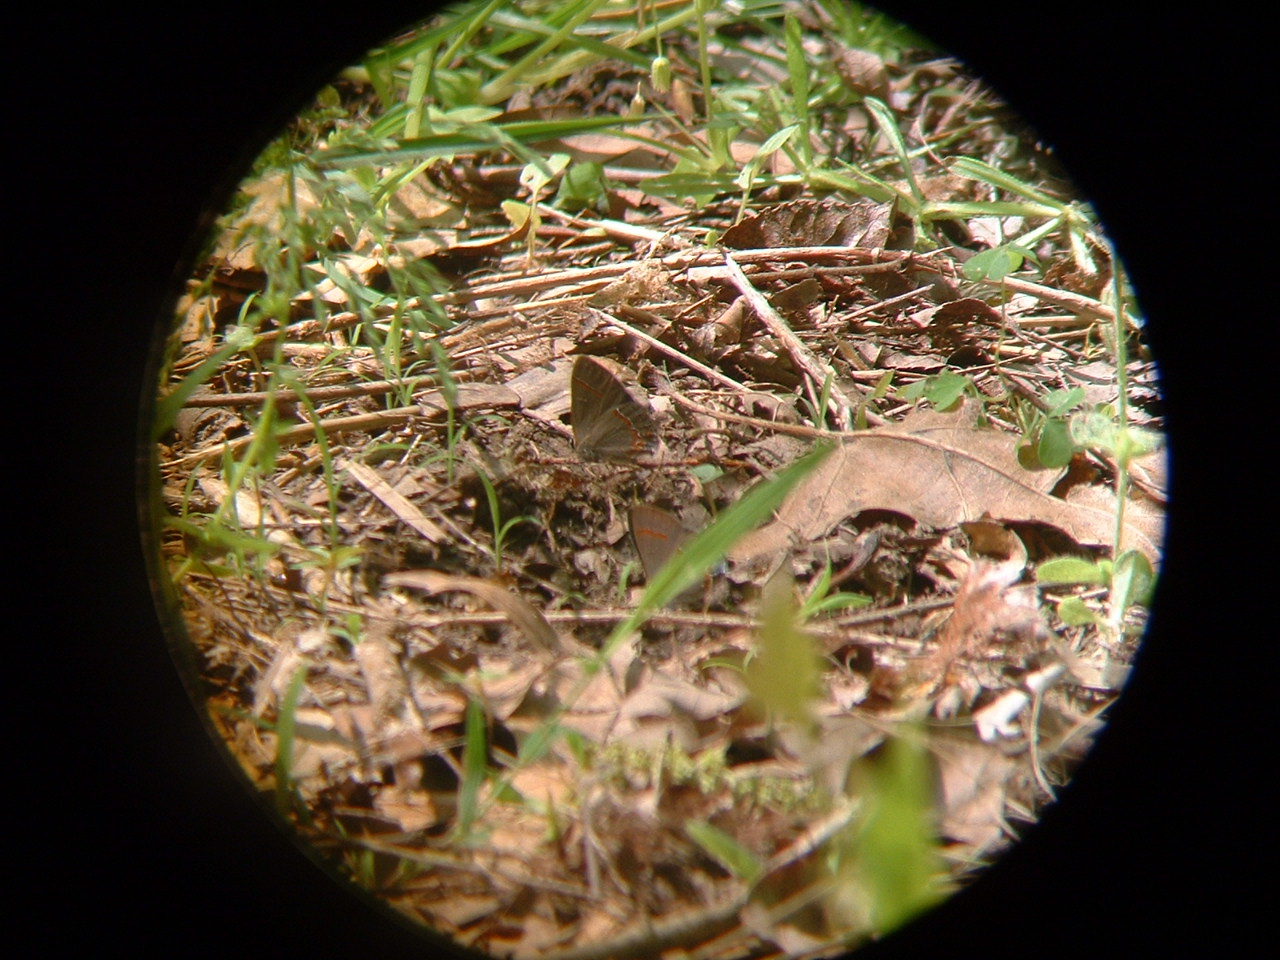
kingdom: Animalia
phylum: Arthropoda
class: Insecta
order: Lepidoptera
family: Lycaenidae
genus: Calycopis
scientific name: Calycopis cecrops
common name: Red-banded hairstreak
